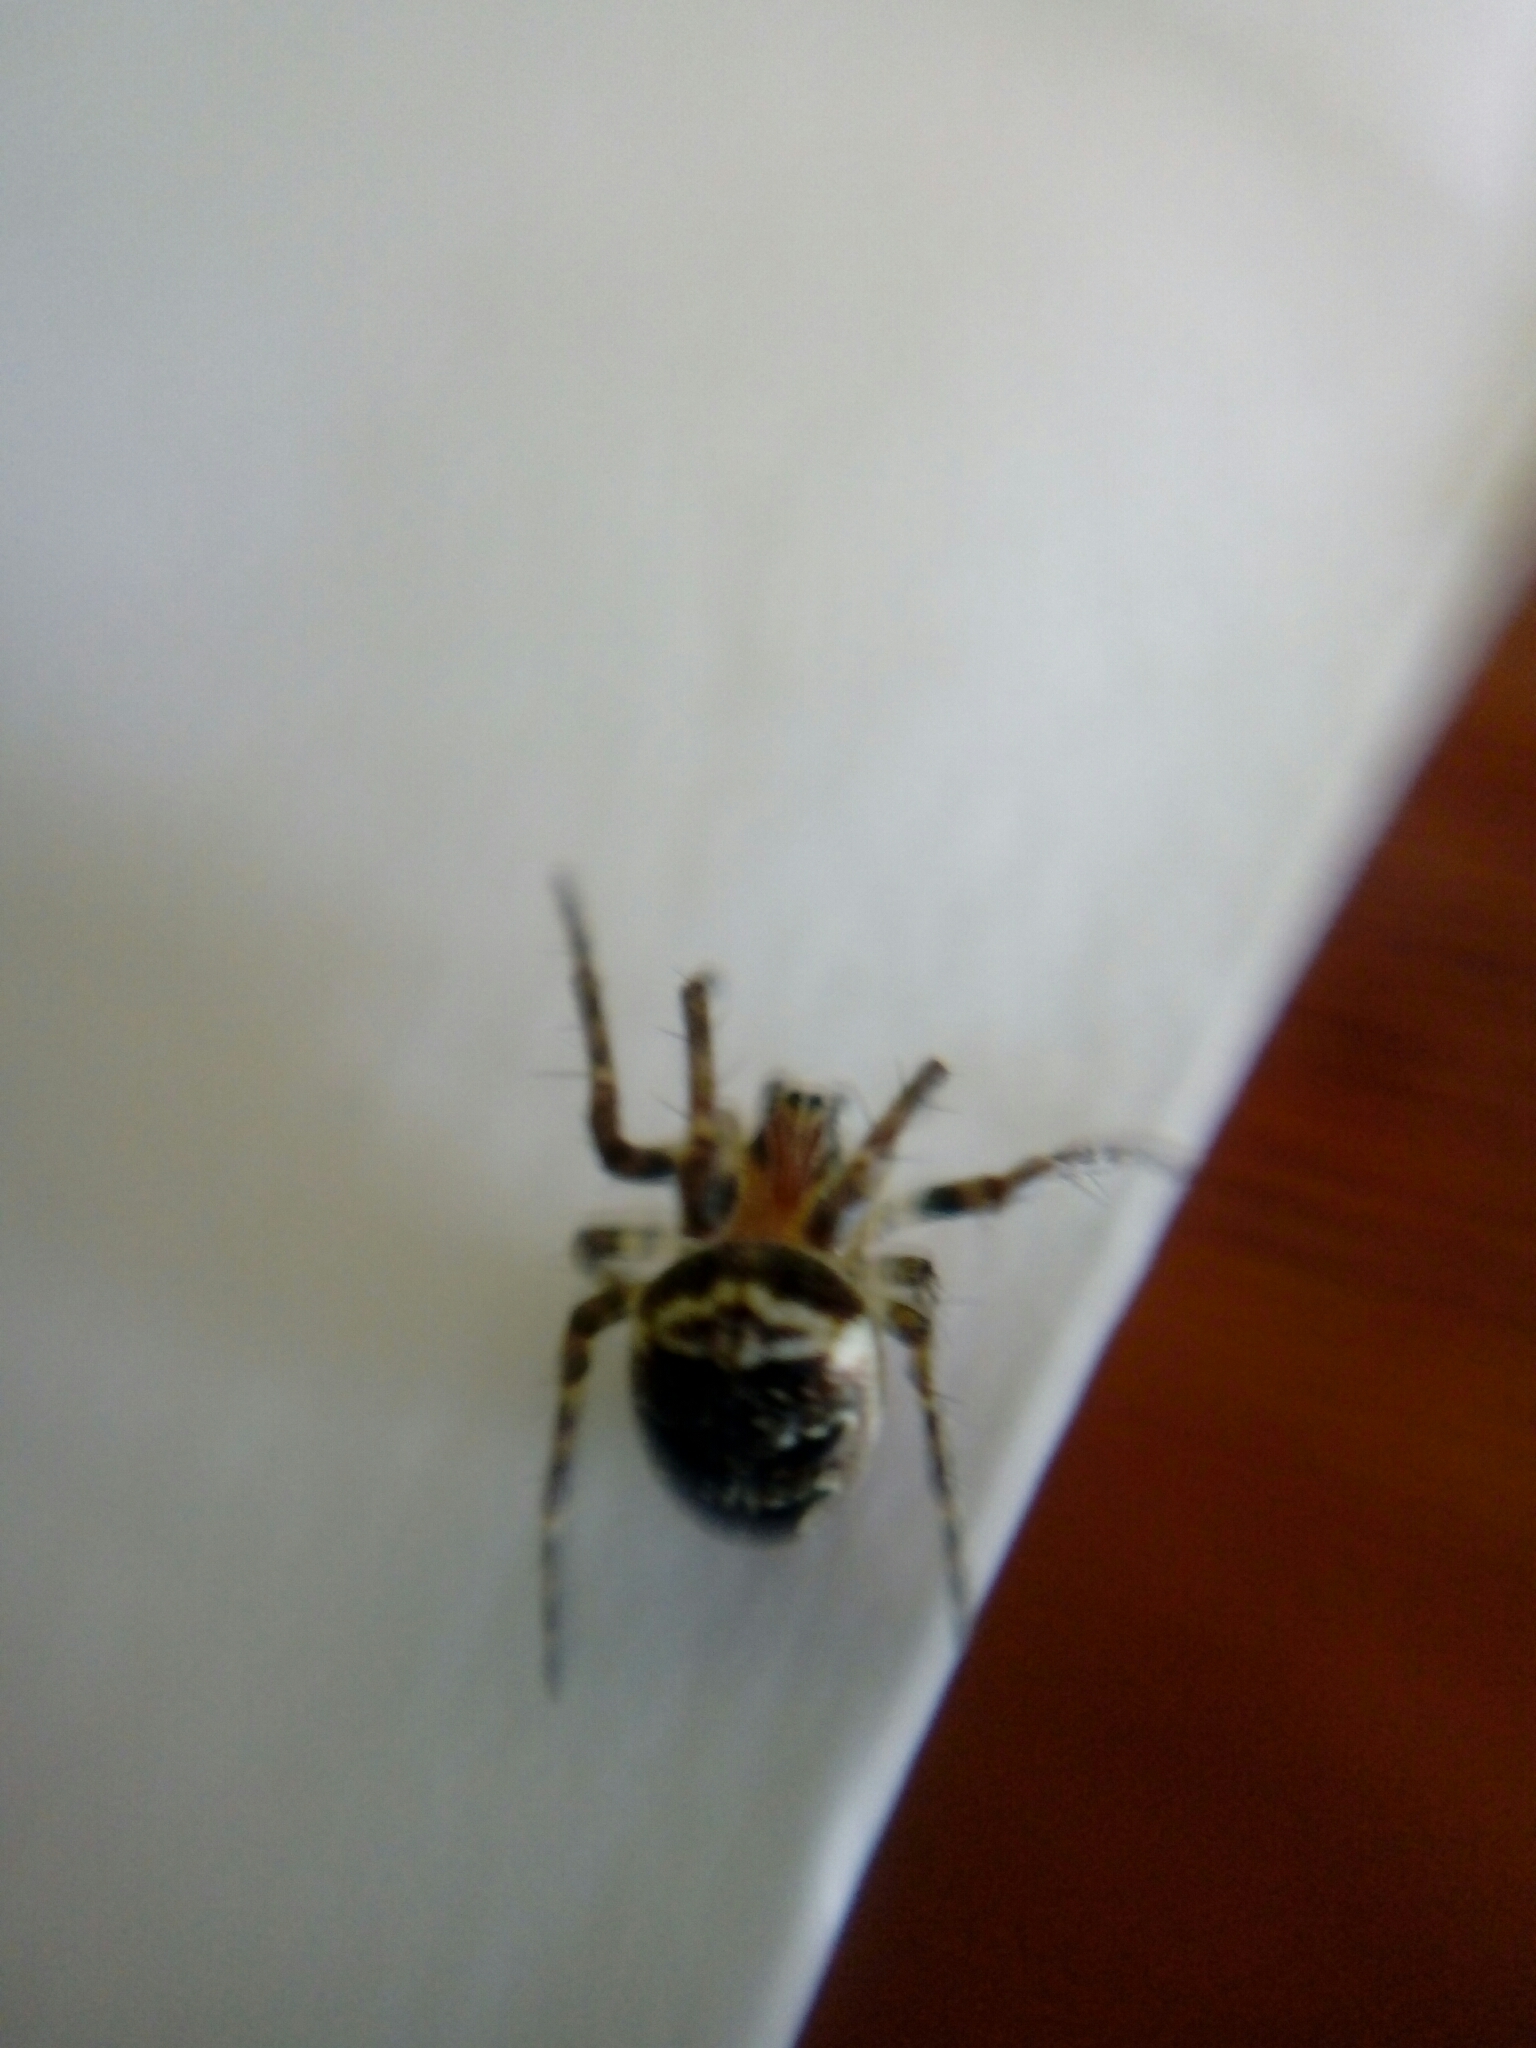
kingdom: Animalia
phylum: Arthropoda
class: Arachnida
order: Araneae
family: Araneidae
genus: Zilla
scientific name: Zilla diodia
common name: Zilla diodia
